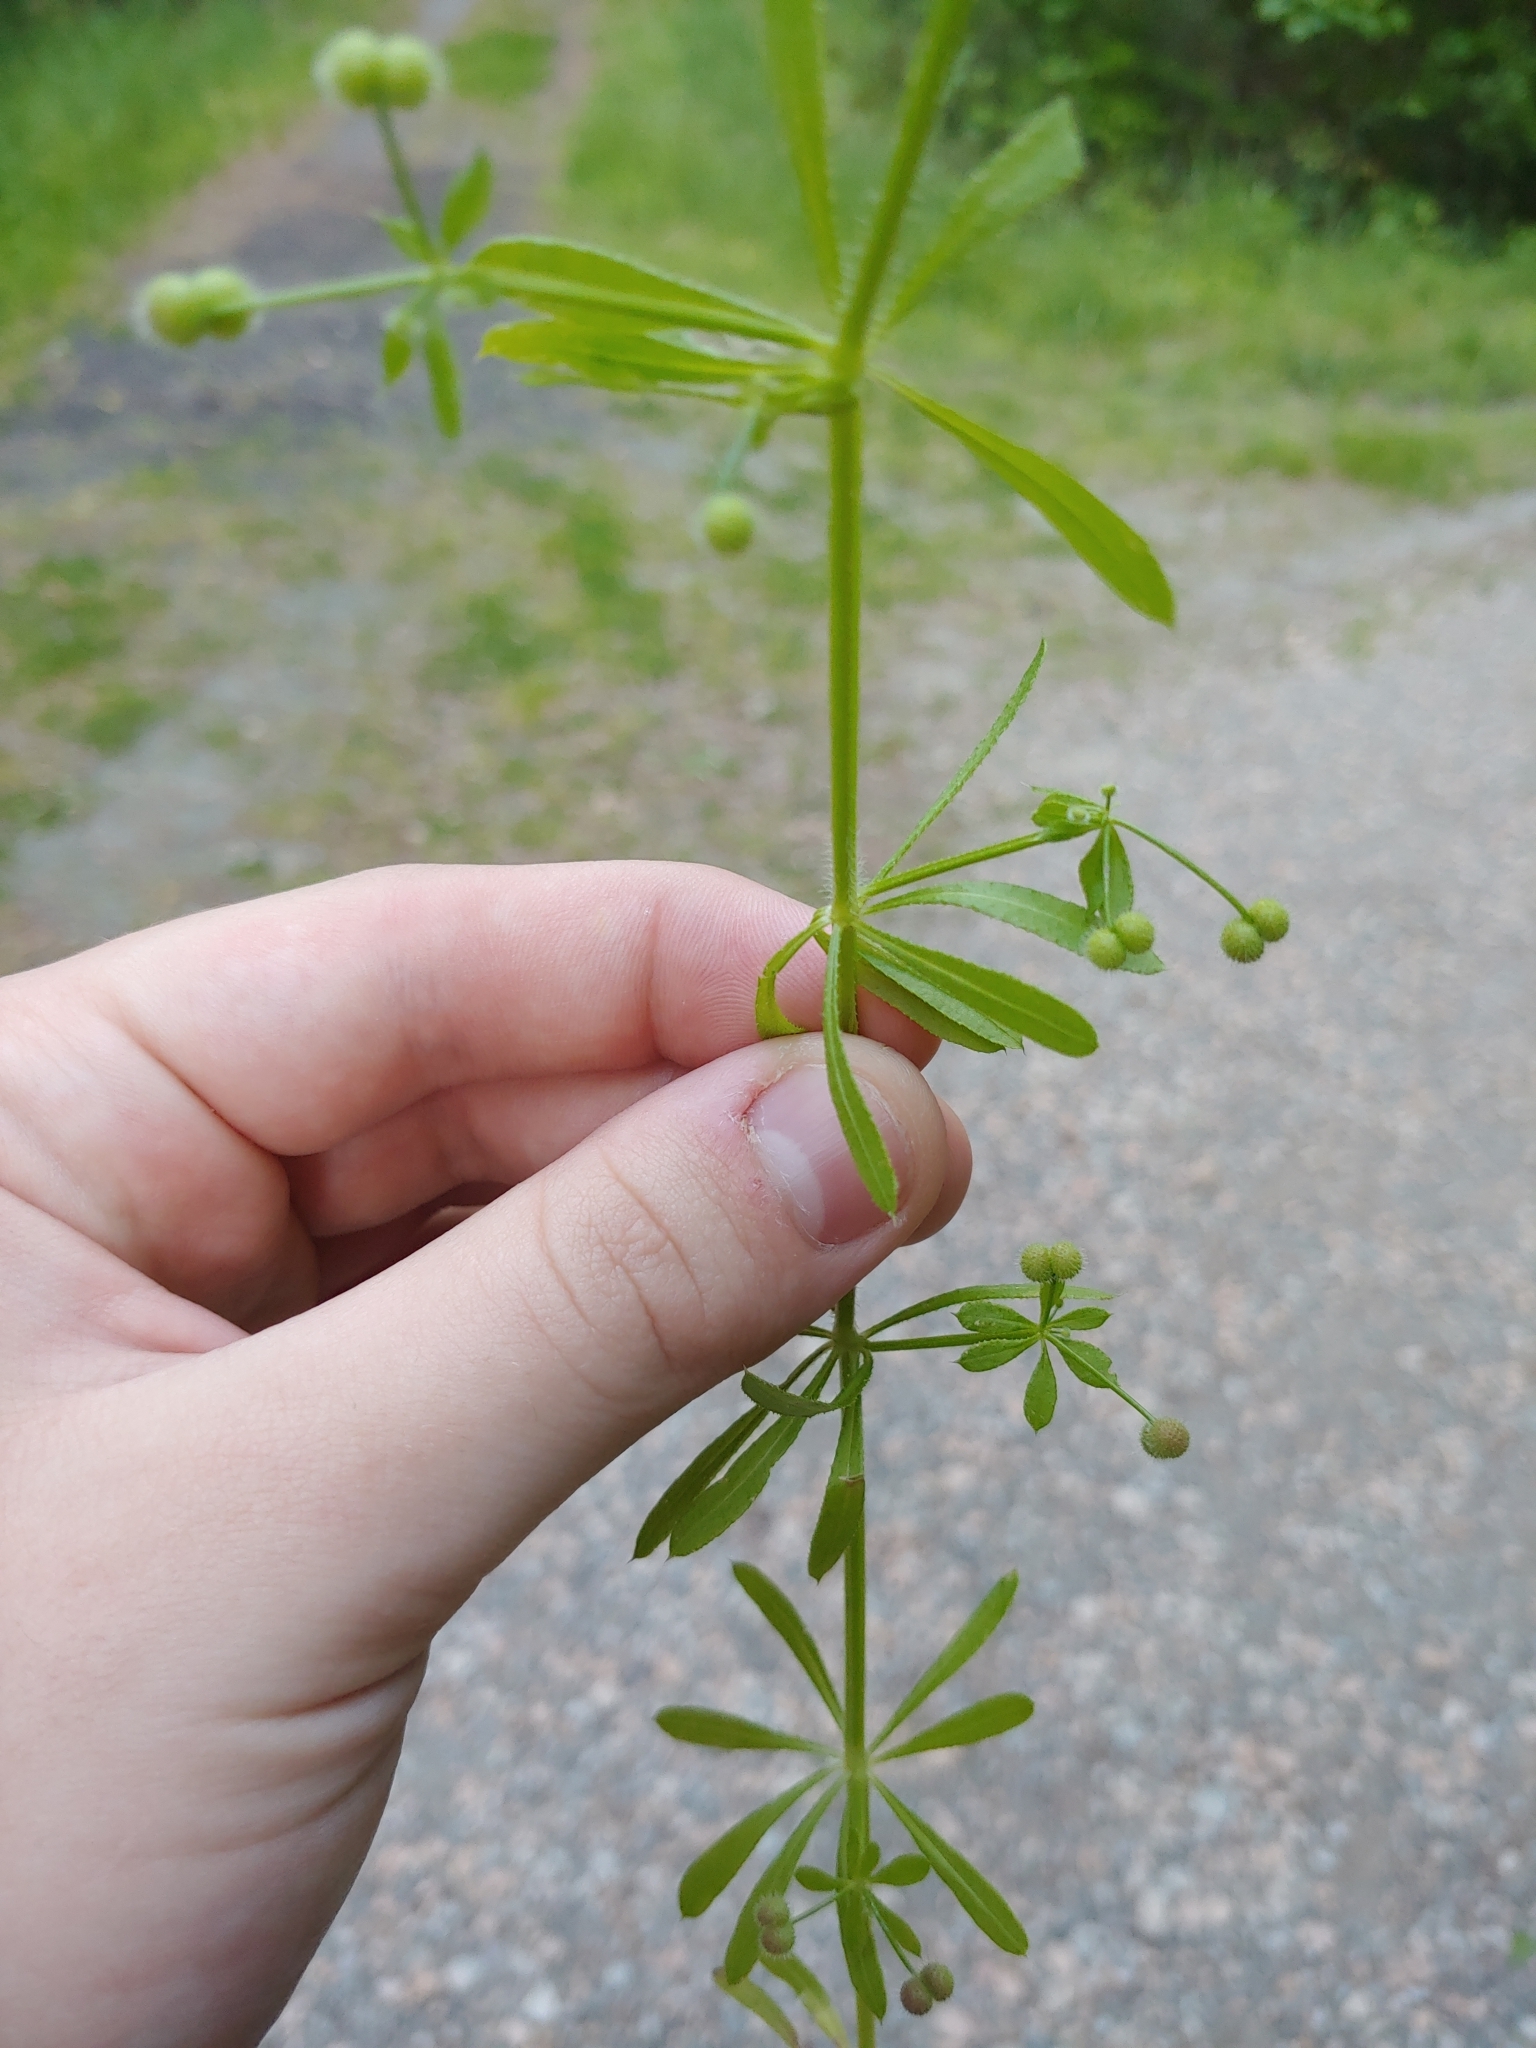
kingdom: Plantae
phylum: Tracheophyta
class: Magnoliopsida
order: Gentianales
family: Rubiaceae
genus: Galium
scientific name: Galium aparine
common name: Cleavers
